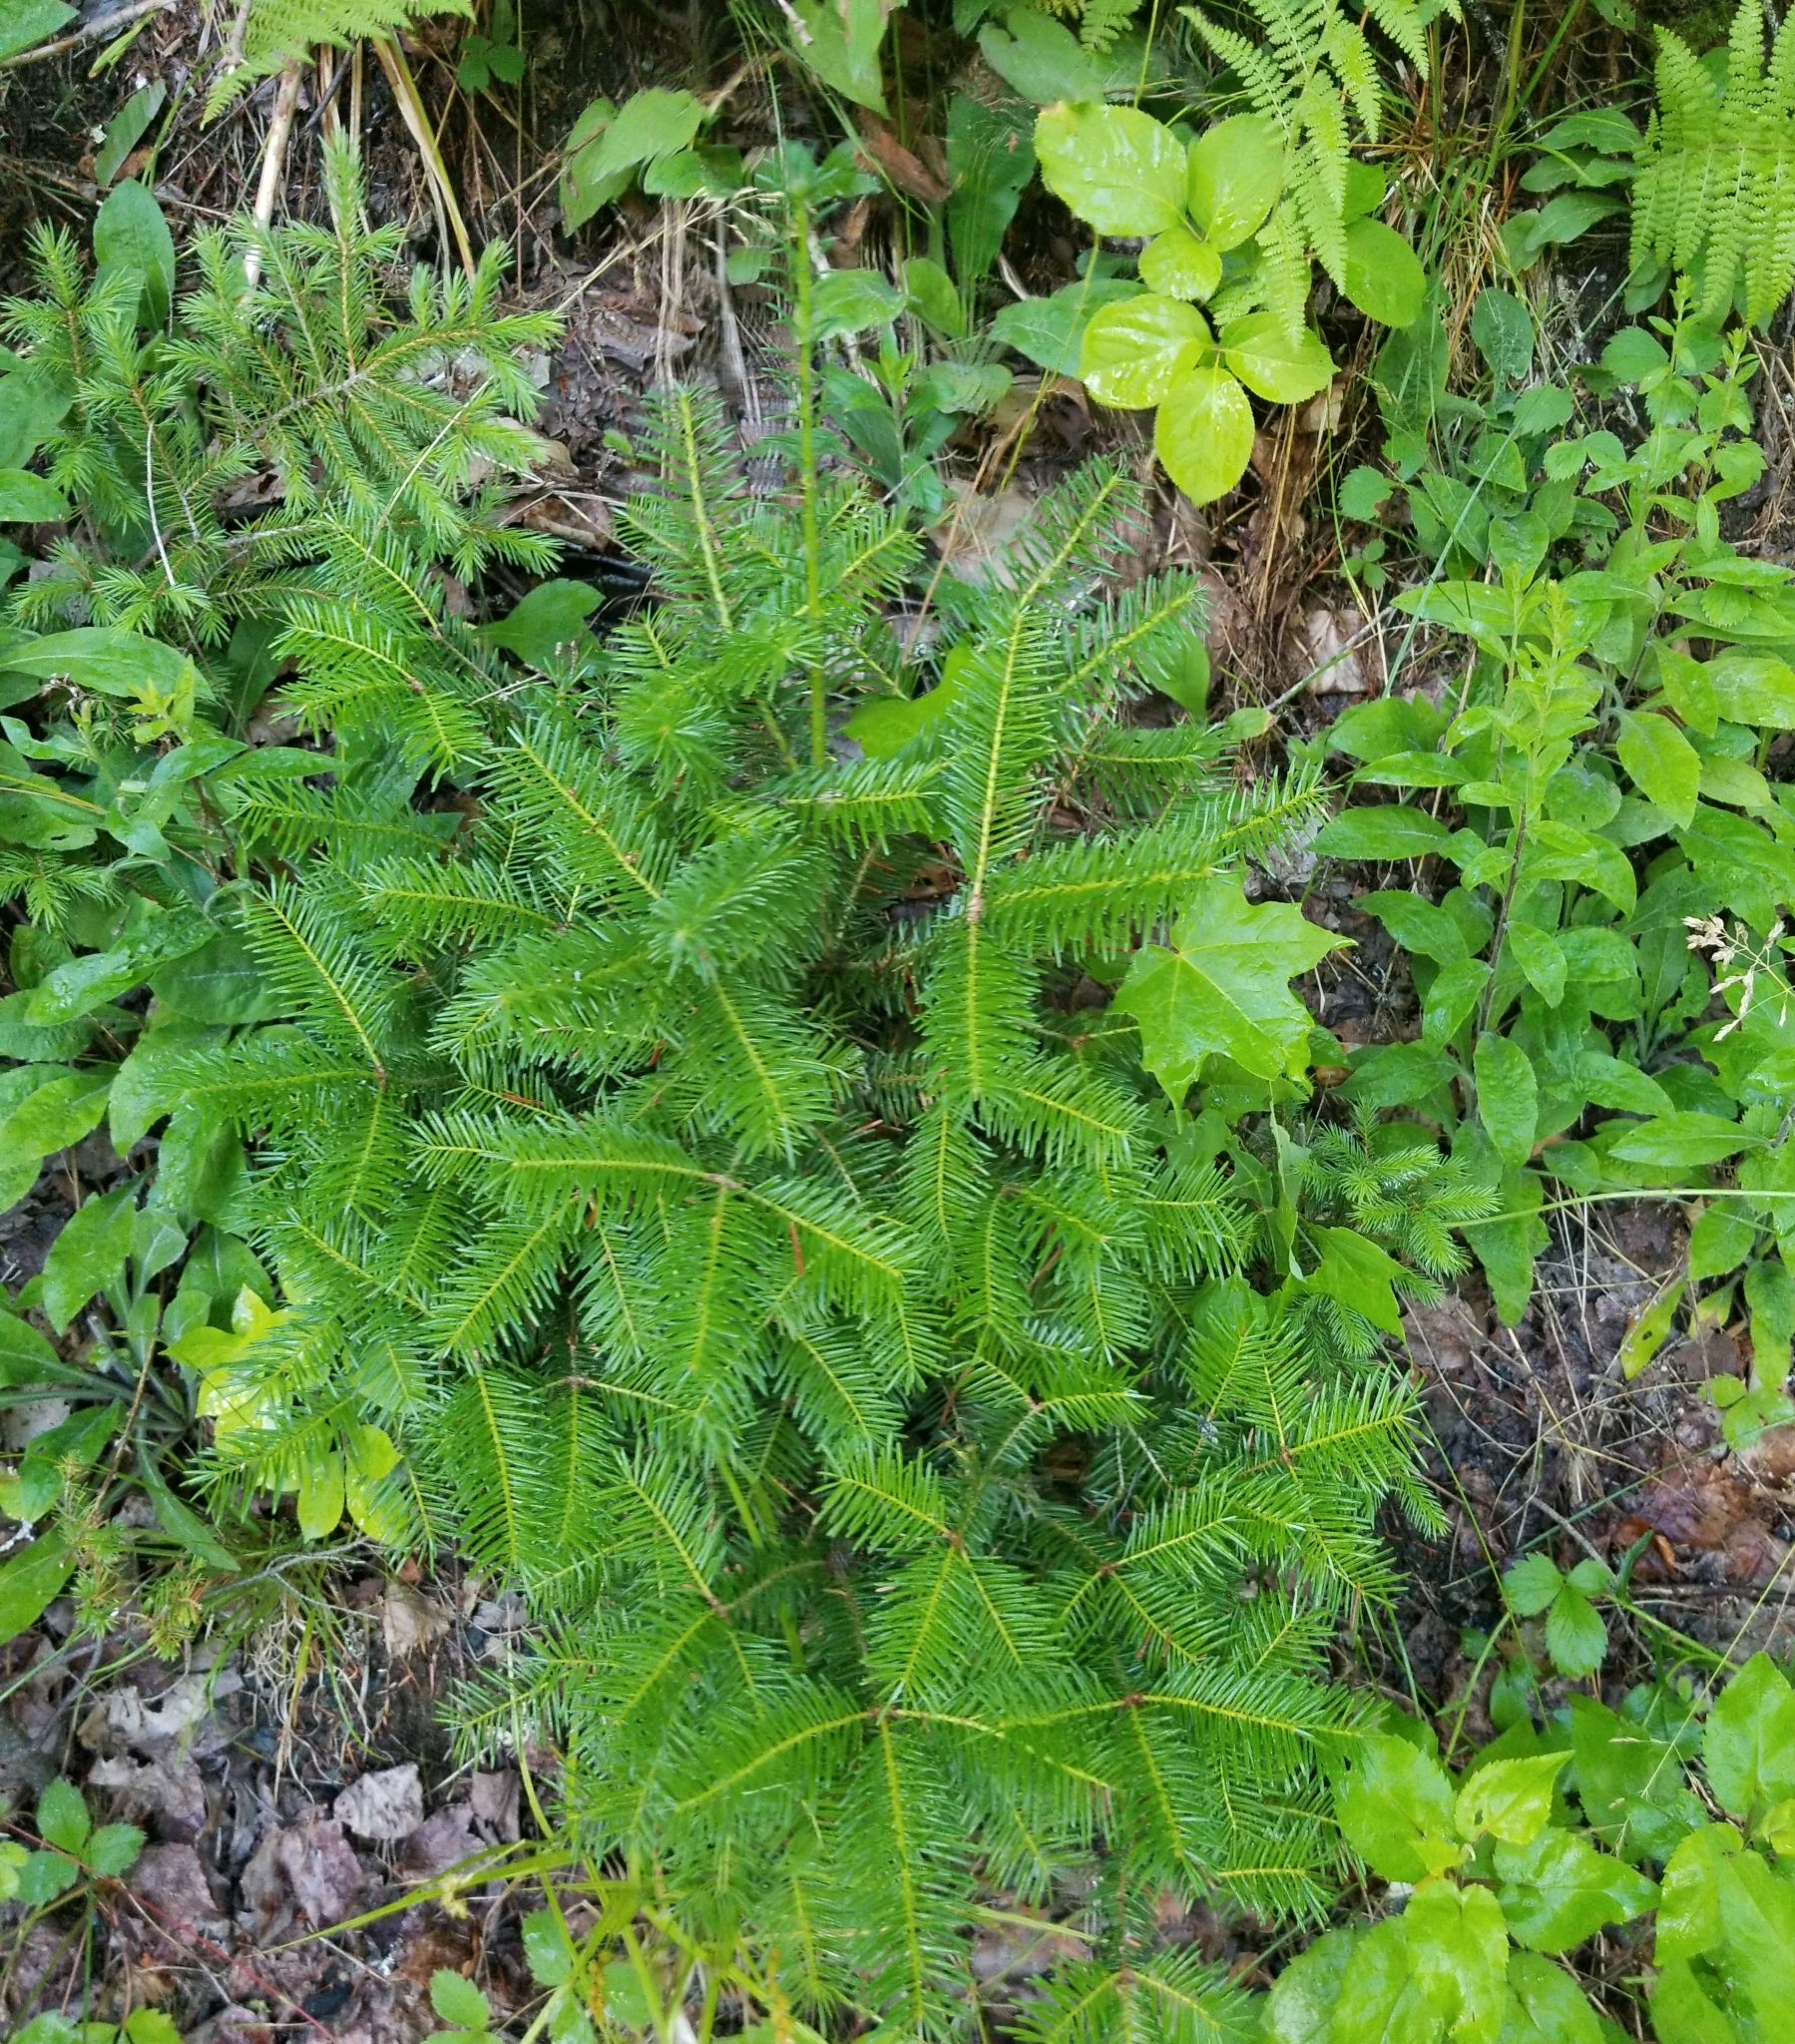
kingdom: Plantae
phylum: Tracheophyta
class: Pinopsida
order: Pinales
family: Pinaceae
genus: Abies
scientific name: Abies balsamea
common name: Balsam fir
